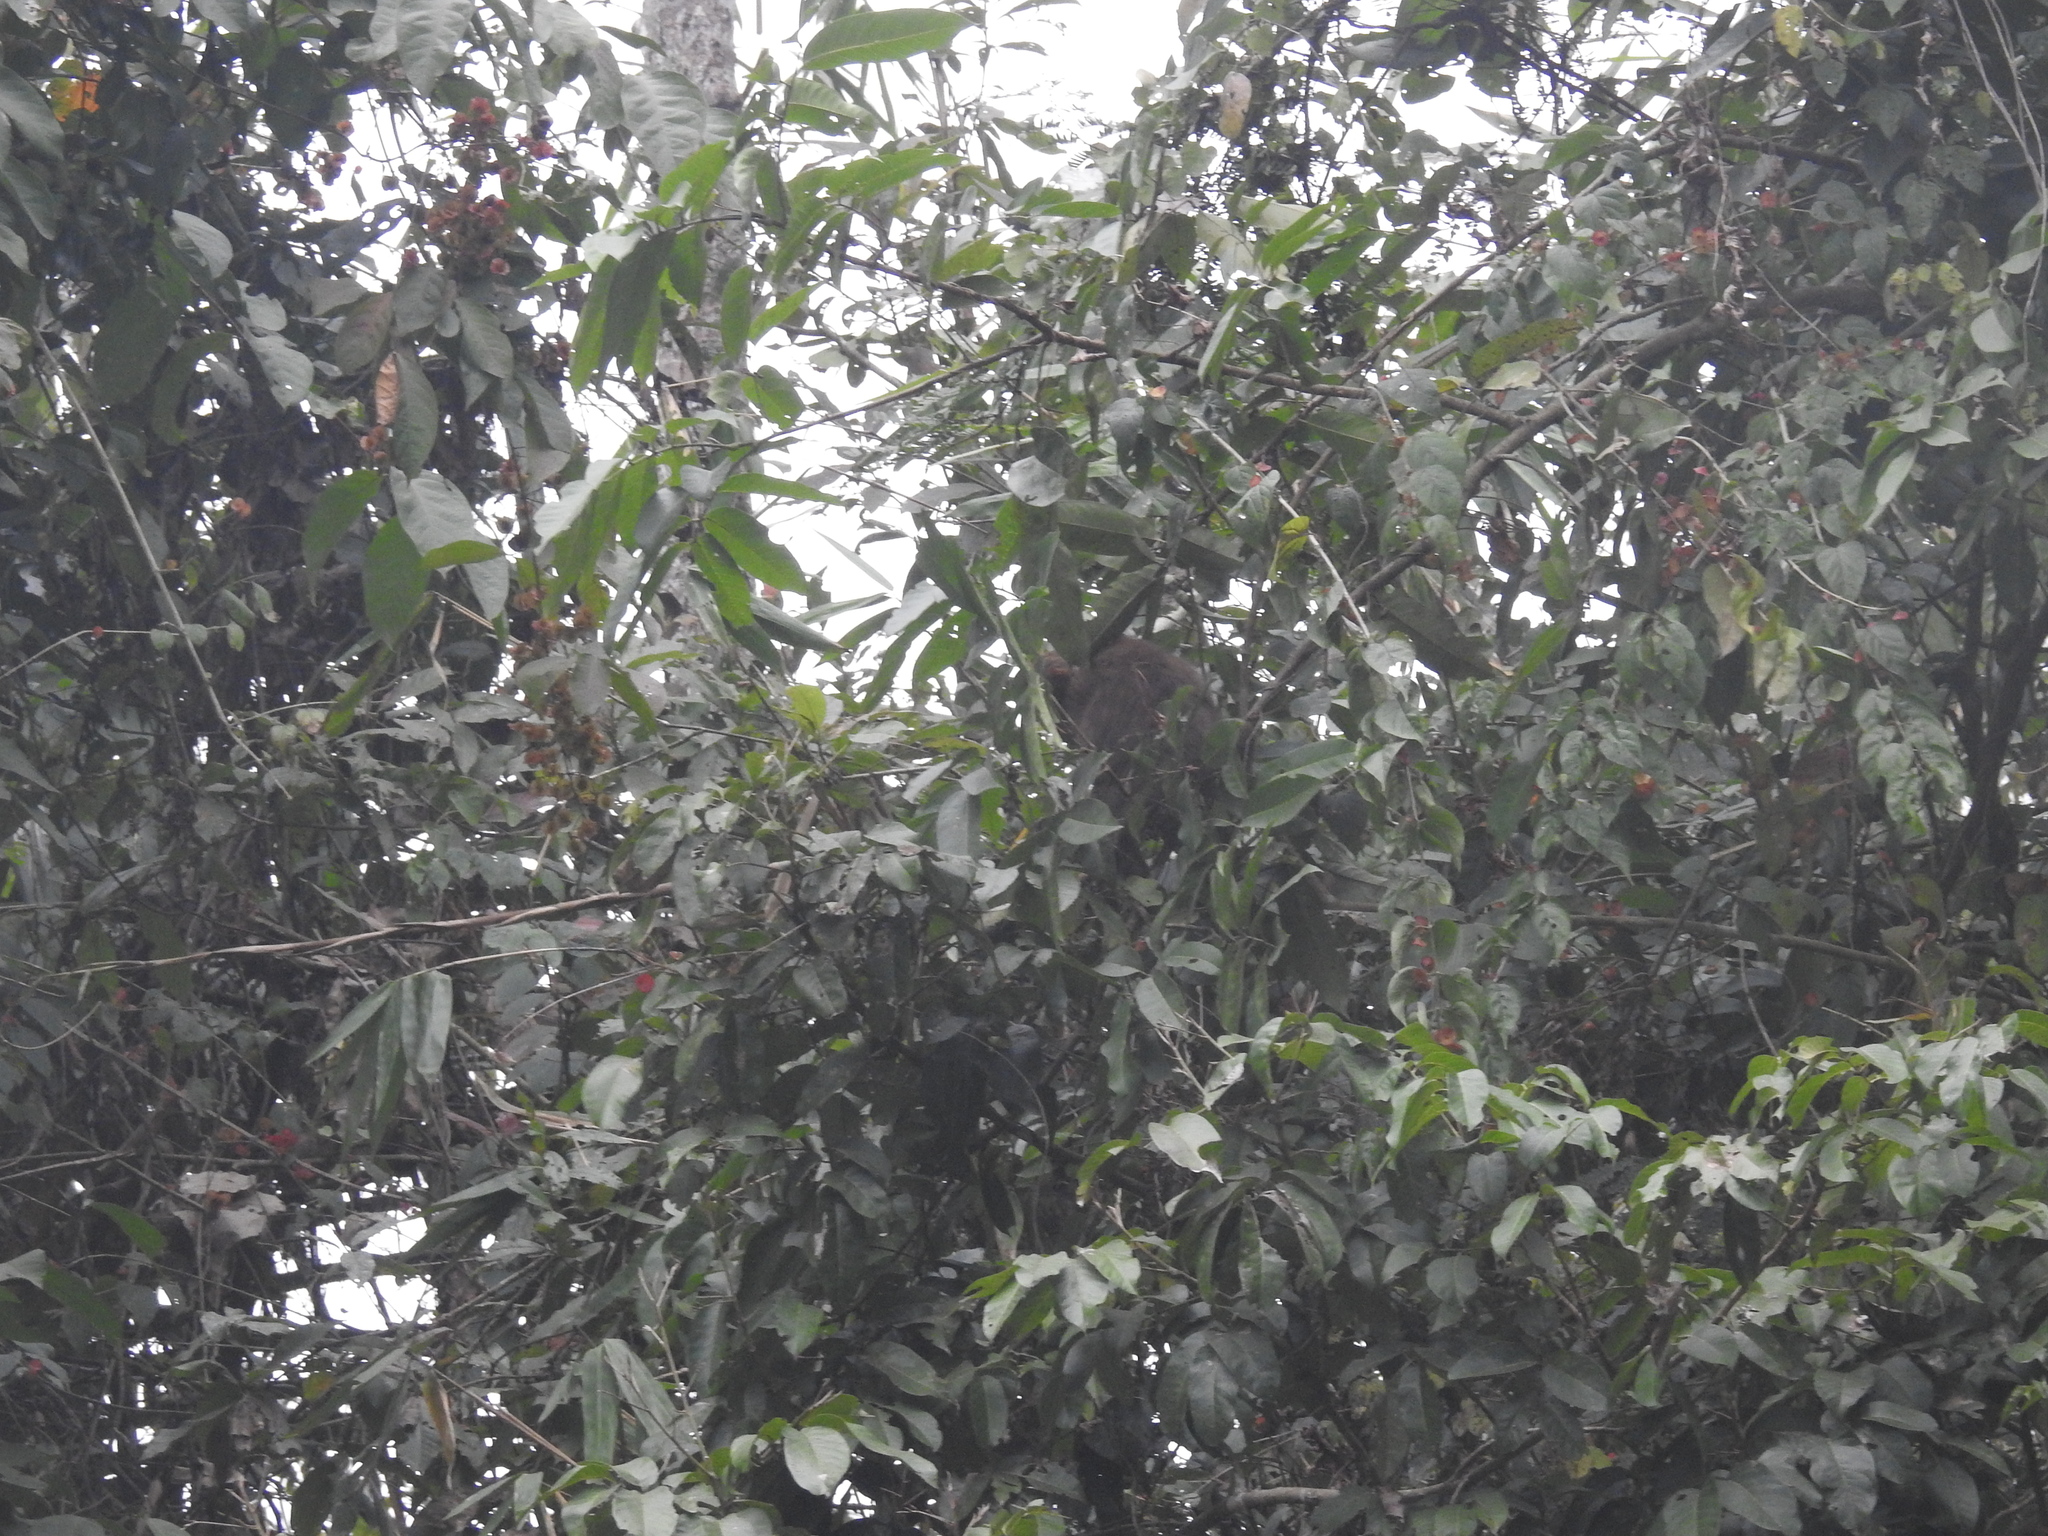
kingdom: Animalia
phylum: Chordata
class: Mammalia
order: Primates
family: Cercopithecidae
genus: Macaca
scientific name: Macaca assamensis
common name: Assam macaque
